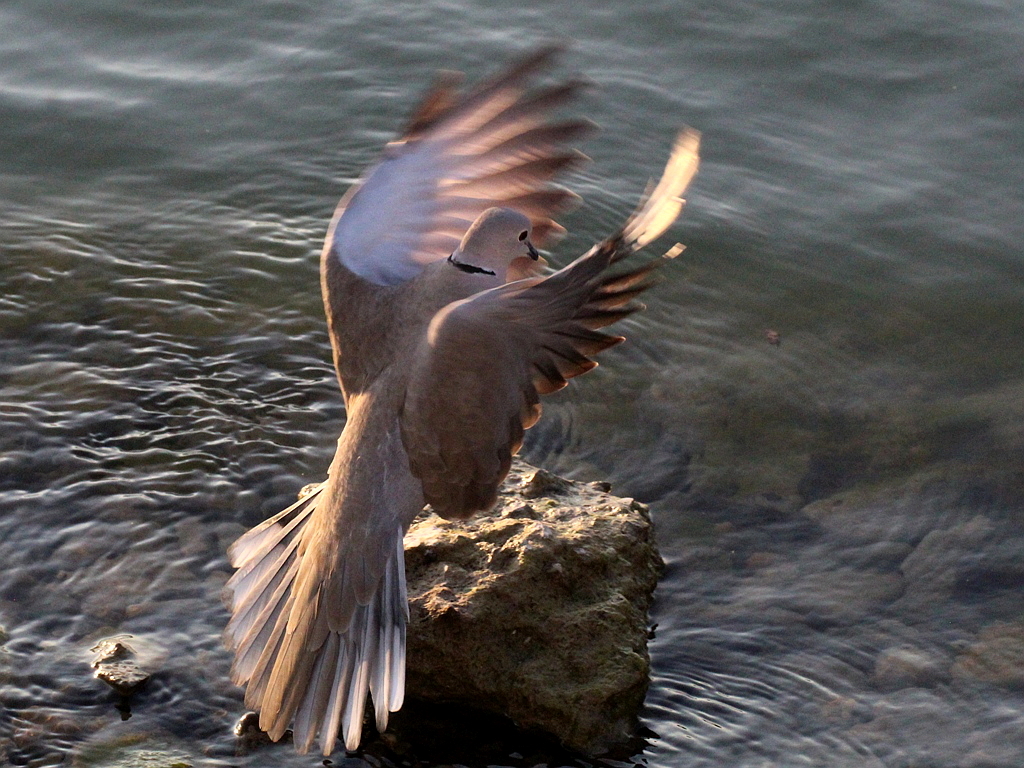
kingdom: Animalia
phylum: Chordata
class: Aves
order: Columbiformes
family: Columbidae
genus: Streptopelia
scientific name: Streptopelia decaocto
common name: Eurasian collared dove
